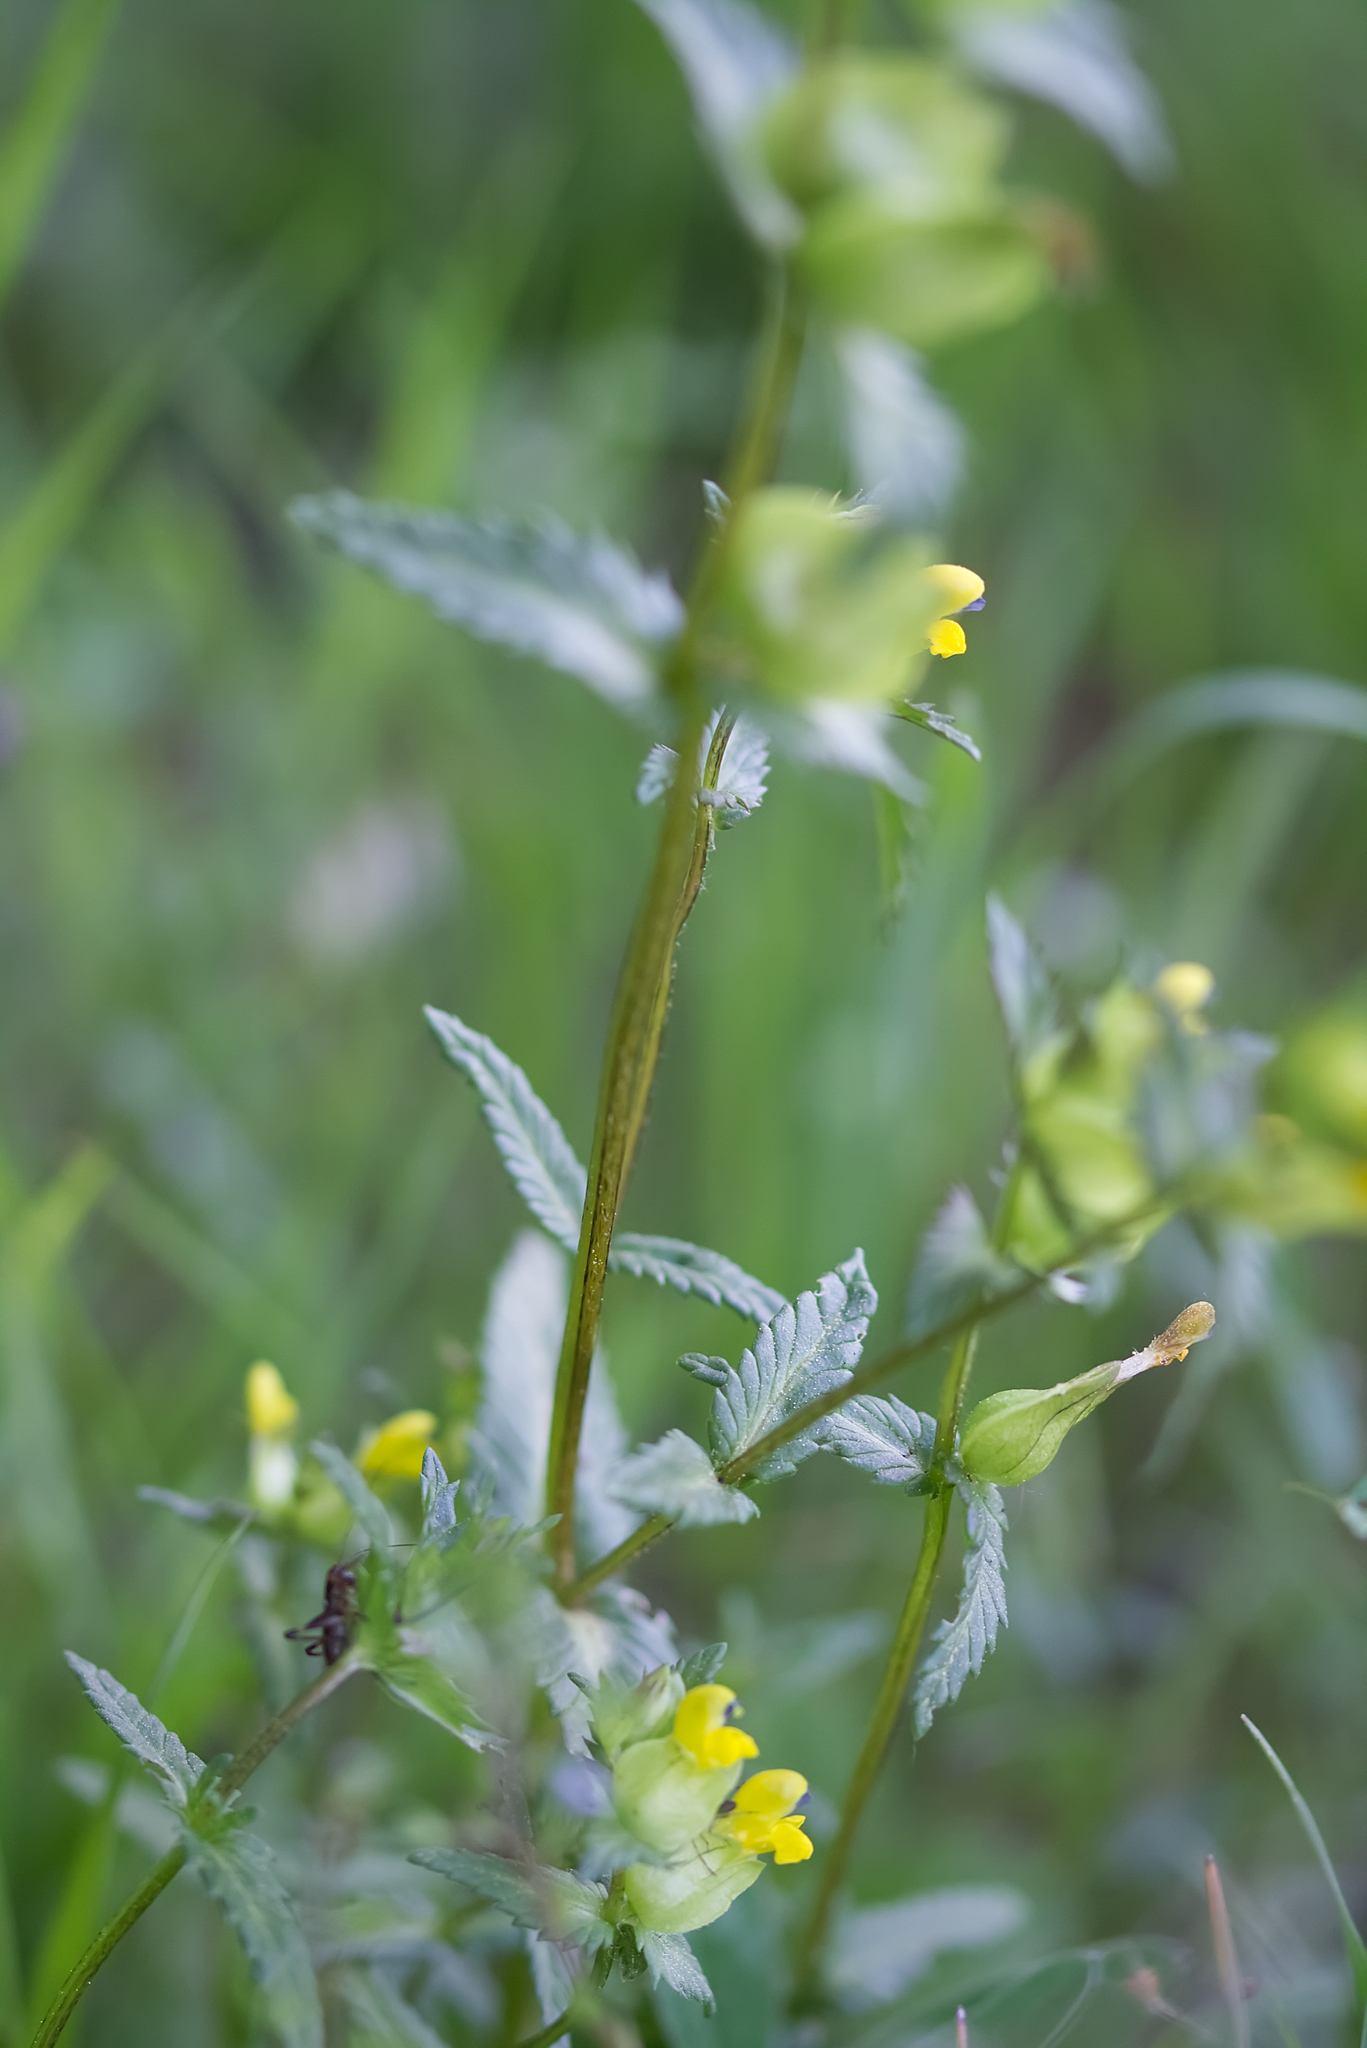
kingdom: Plantae
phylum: Tracheophyta
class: Magnoliopsida
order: Lamiales
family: Orobanchaceae
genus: Rhinanthus
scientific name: Rhinanthus minor
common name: Yellow-rattle
